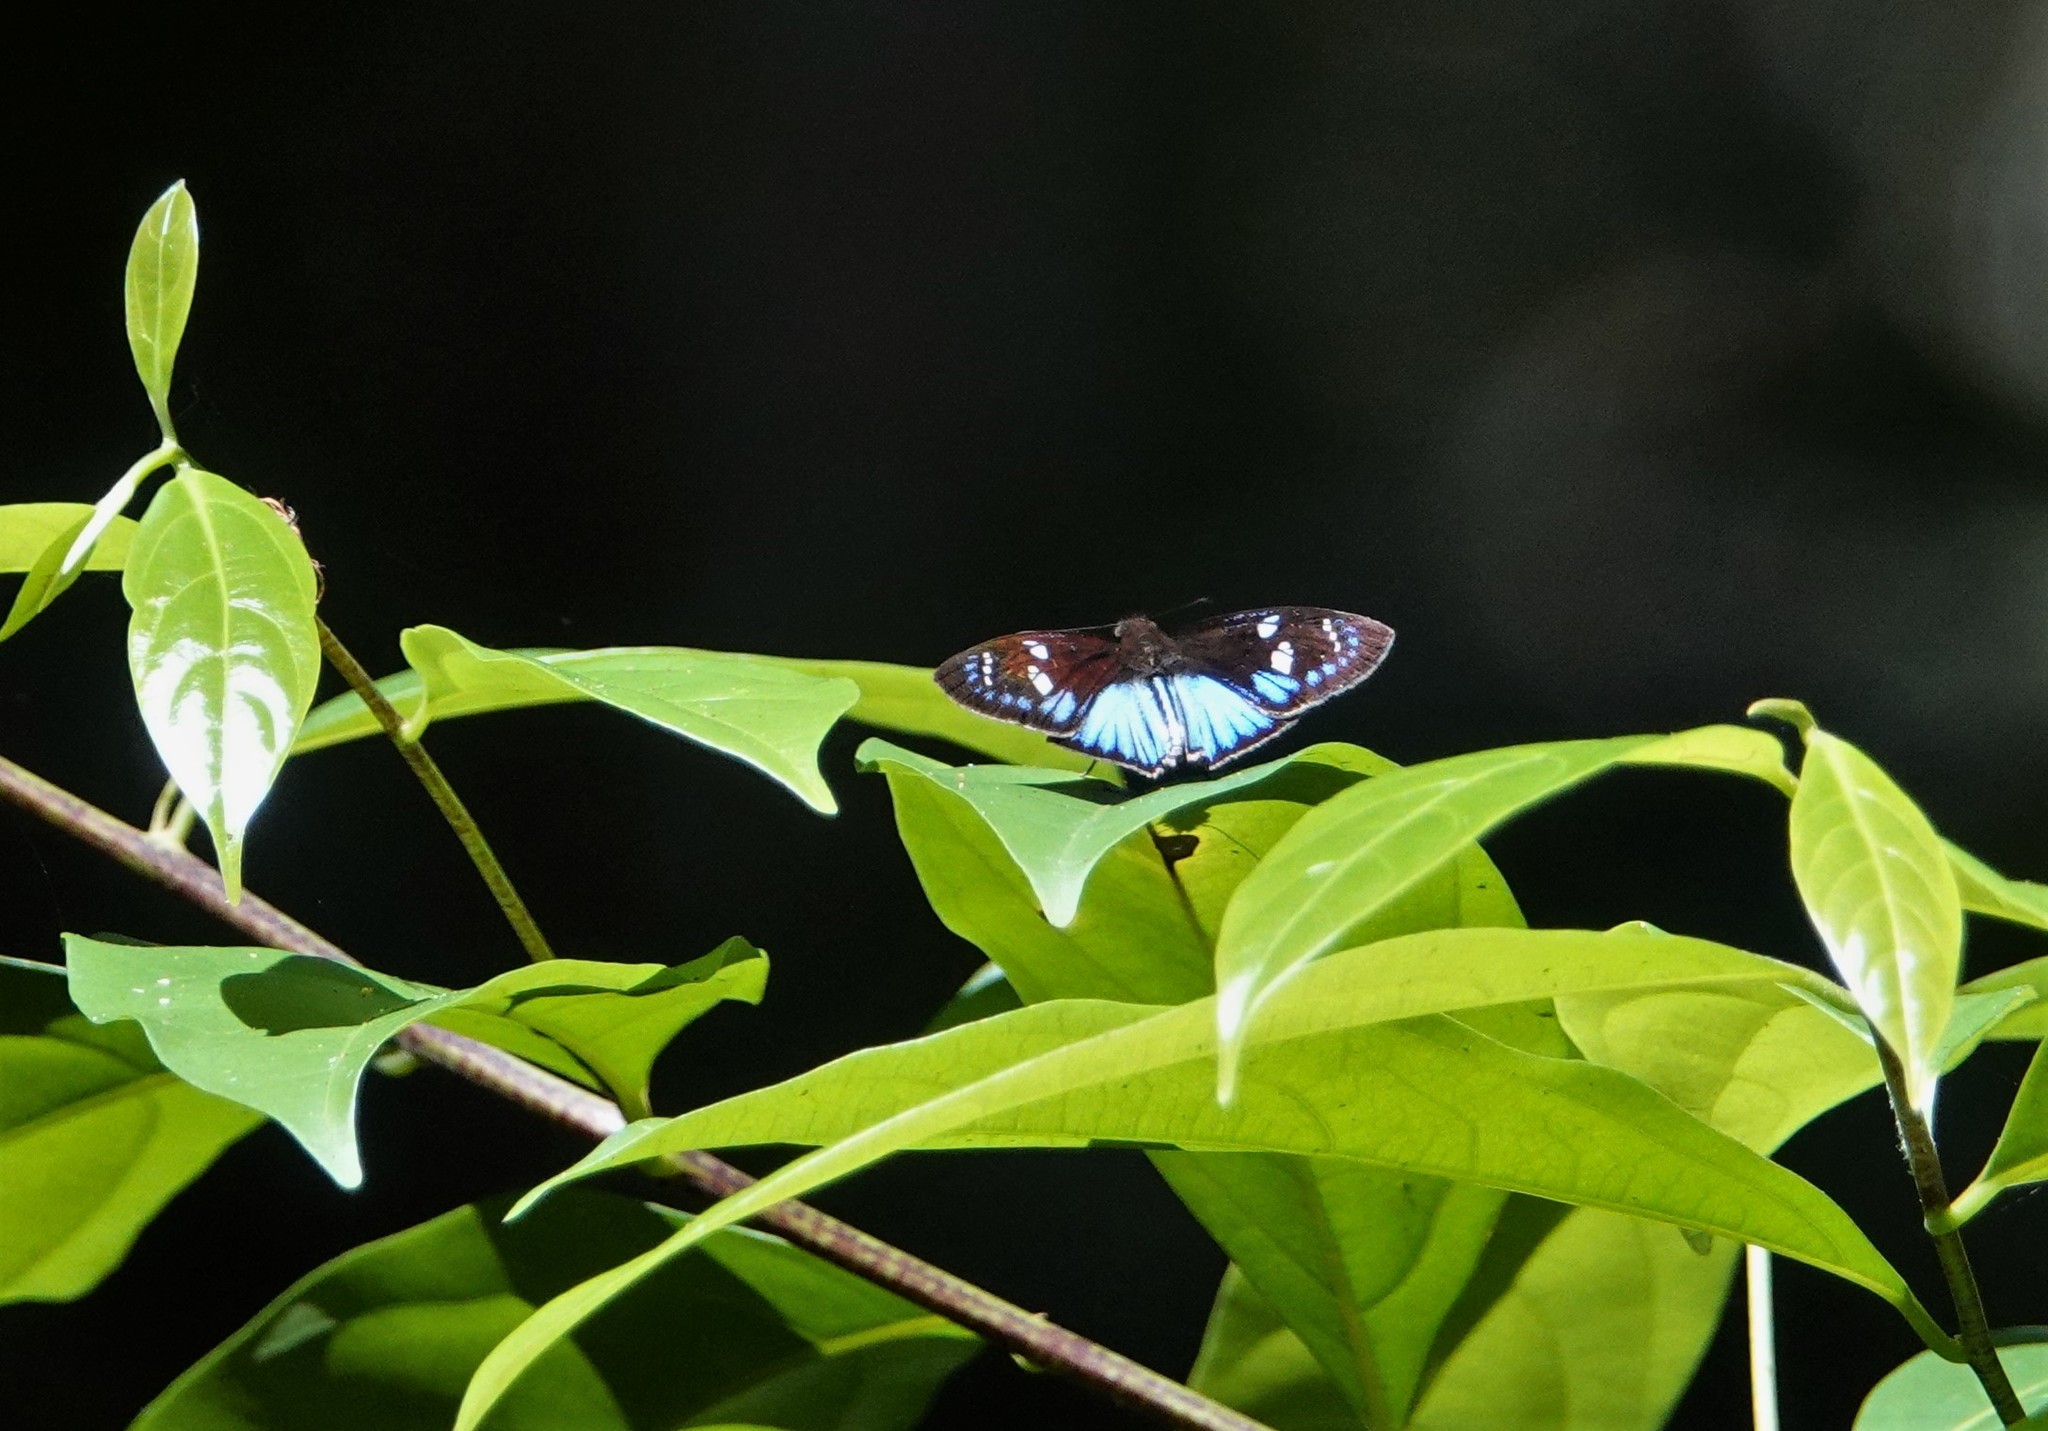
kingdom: Animalia
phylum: Arthropoda
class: Insecta
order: Lepidoptera
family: Hesperiidae
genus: Pythonides
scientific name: Pythonides jovianus
